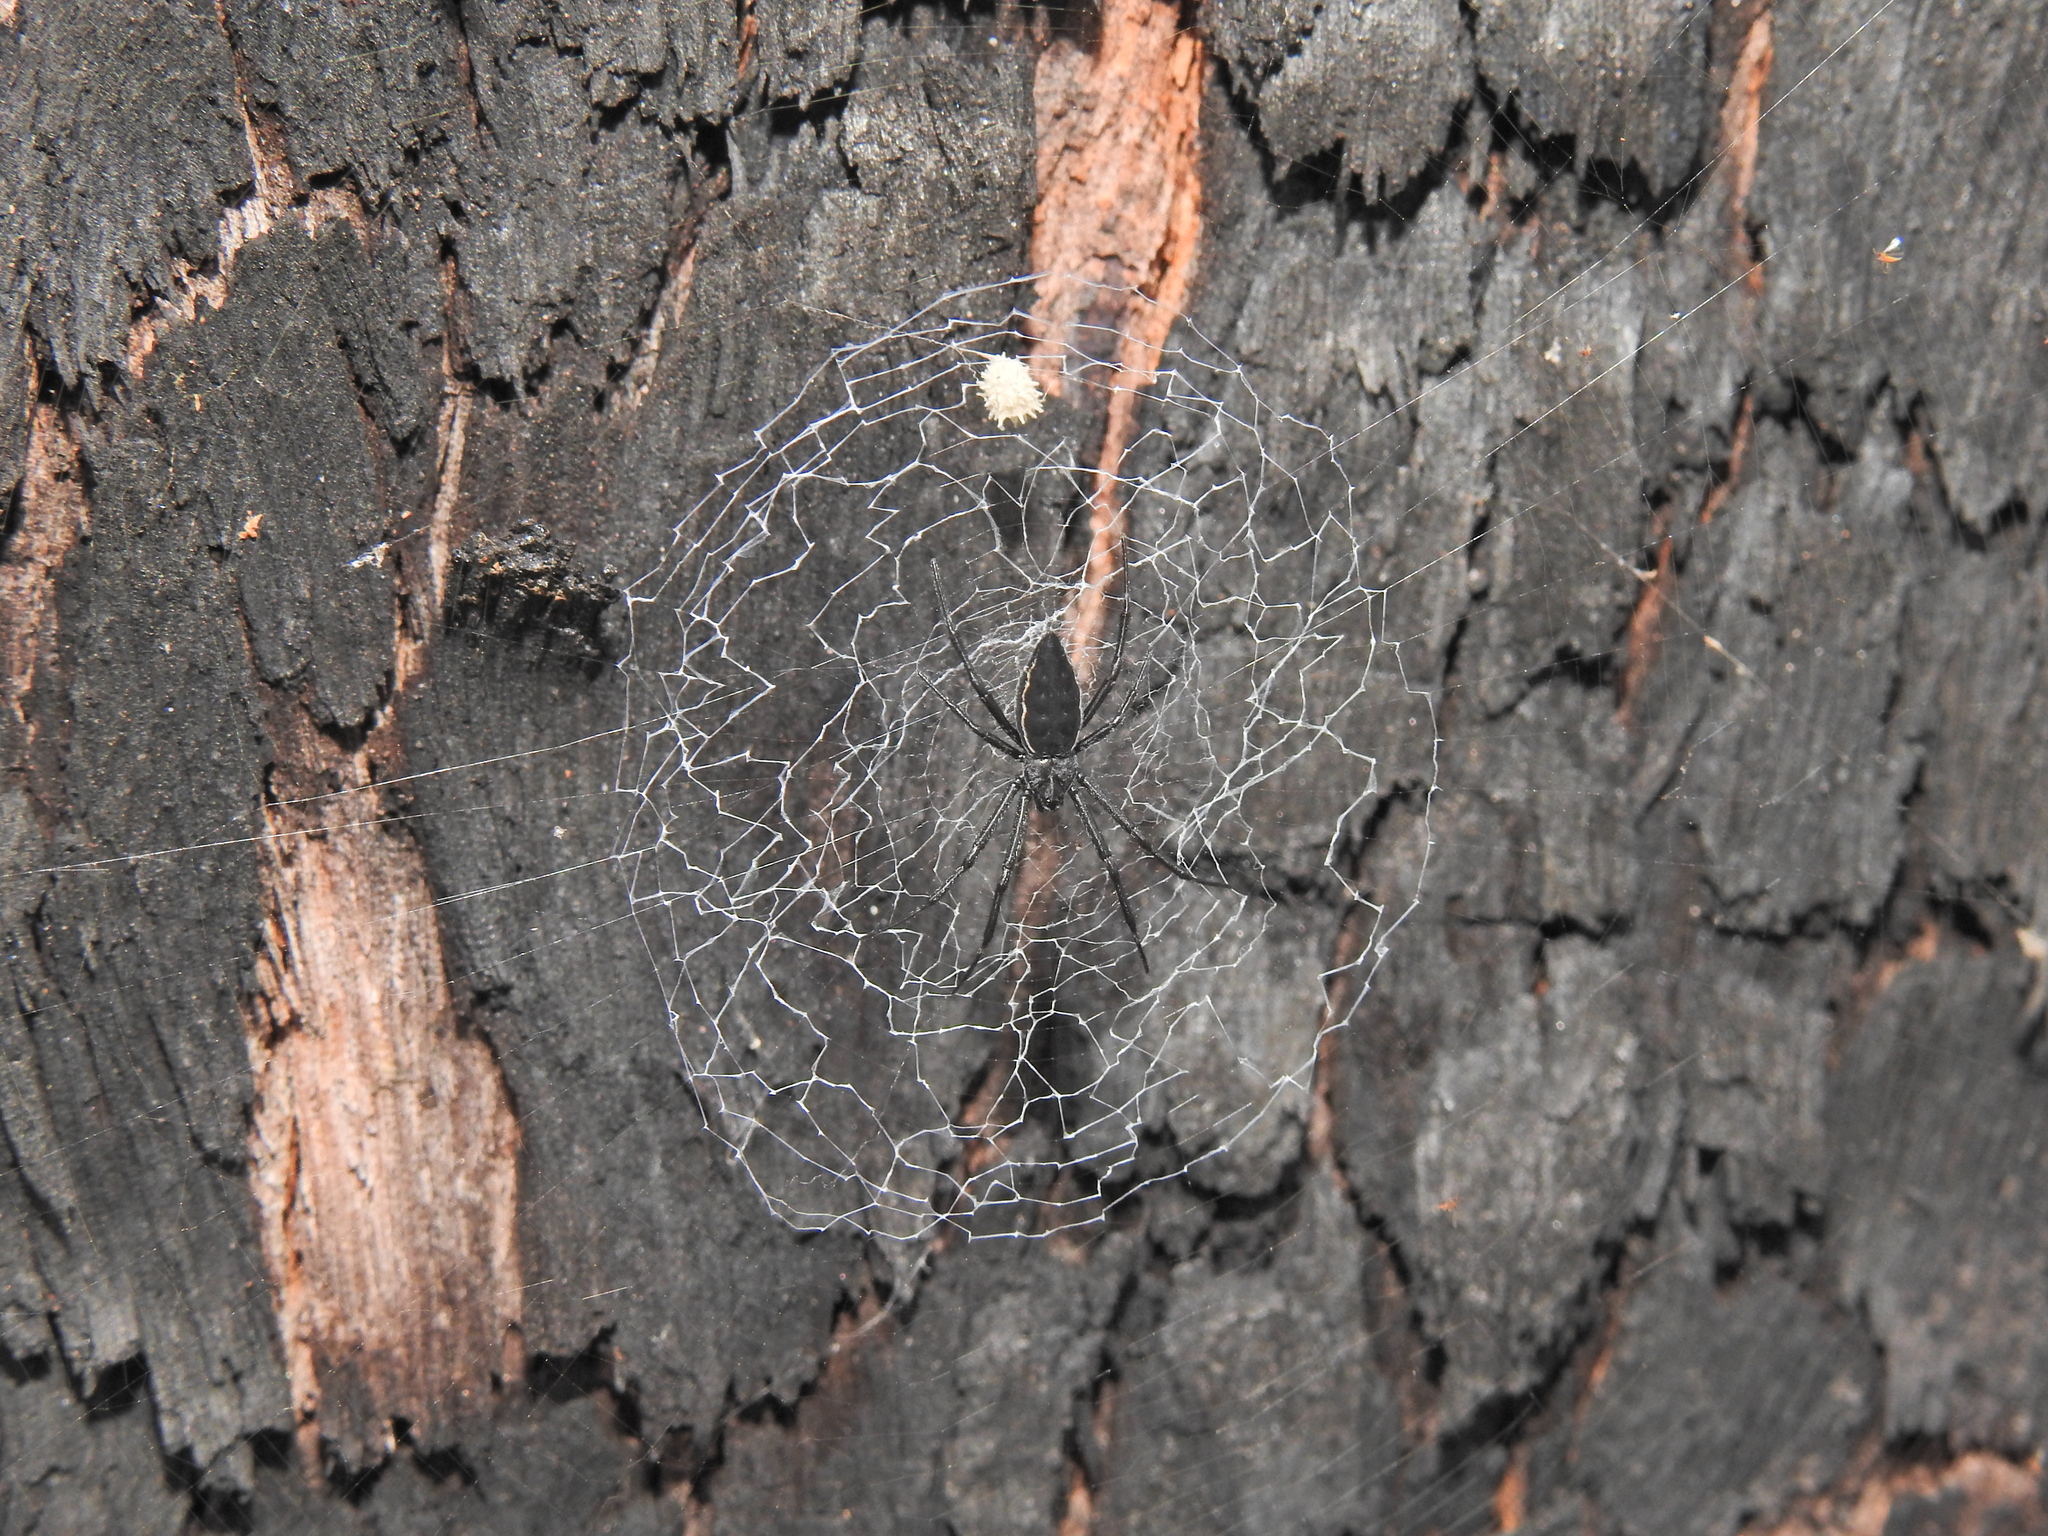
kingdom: Animalia
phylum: Arthropoda
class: Arachnida
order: Araneae
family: Araneidae
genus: Argiope
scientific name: Argiope ocyaloides
